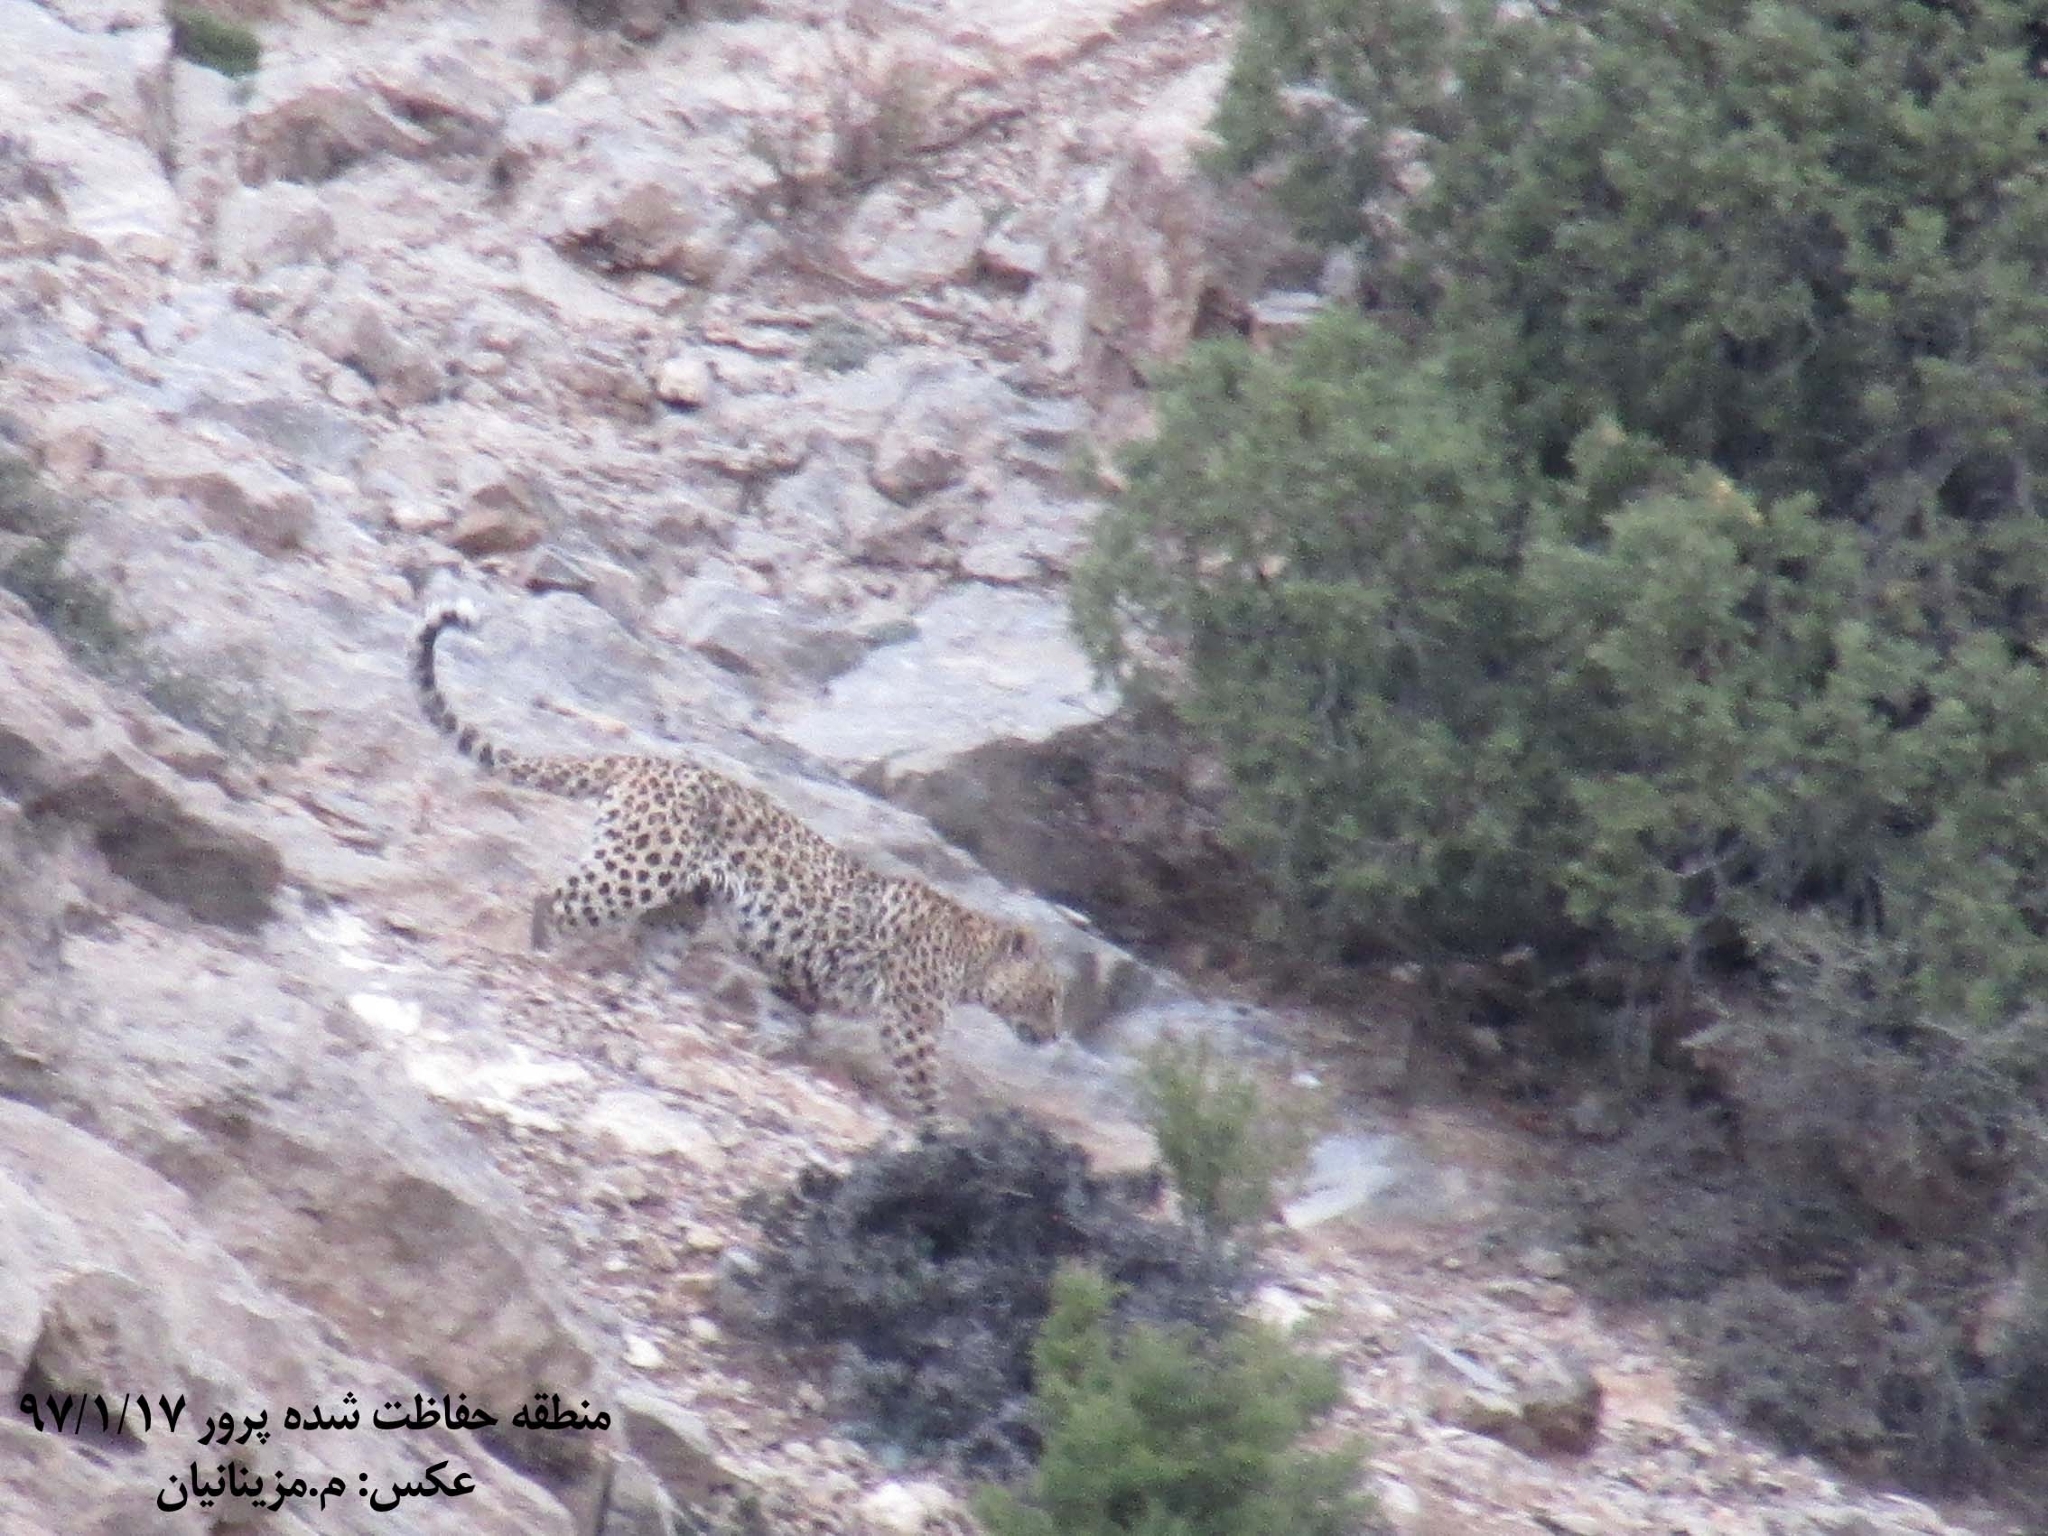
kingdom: Animalia
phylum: Chordata
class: Mammalia
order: Carnivora
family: Felidae
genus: Panthera
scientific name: Panthera pardus
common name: Leopard
